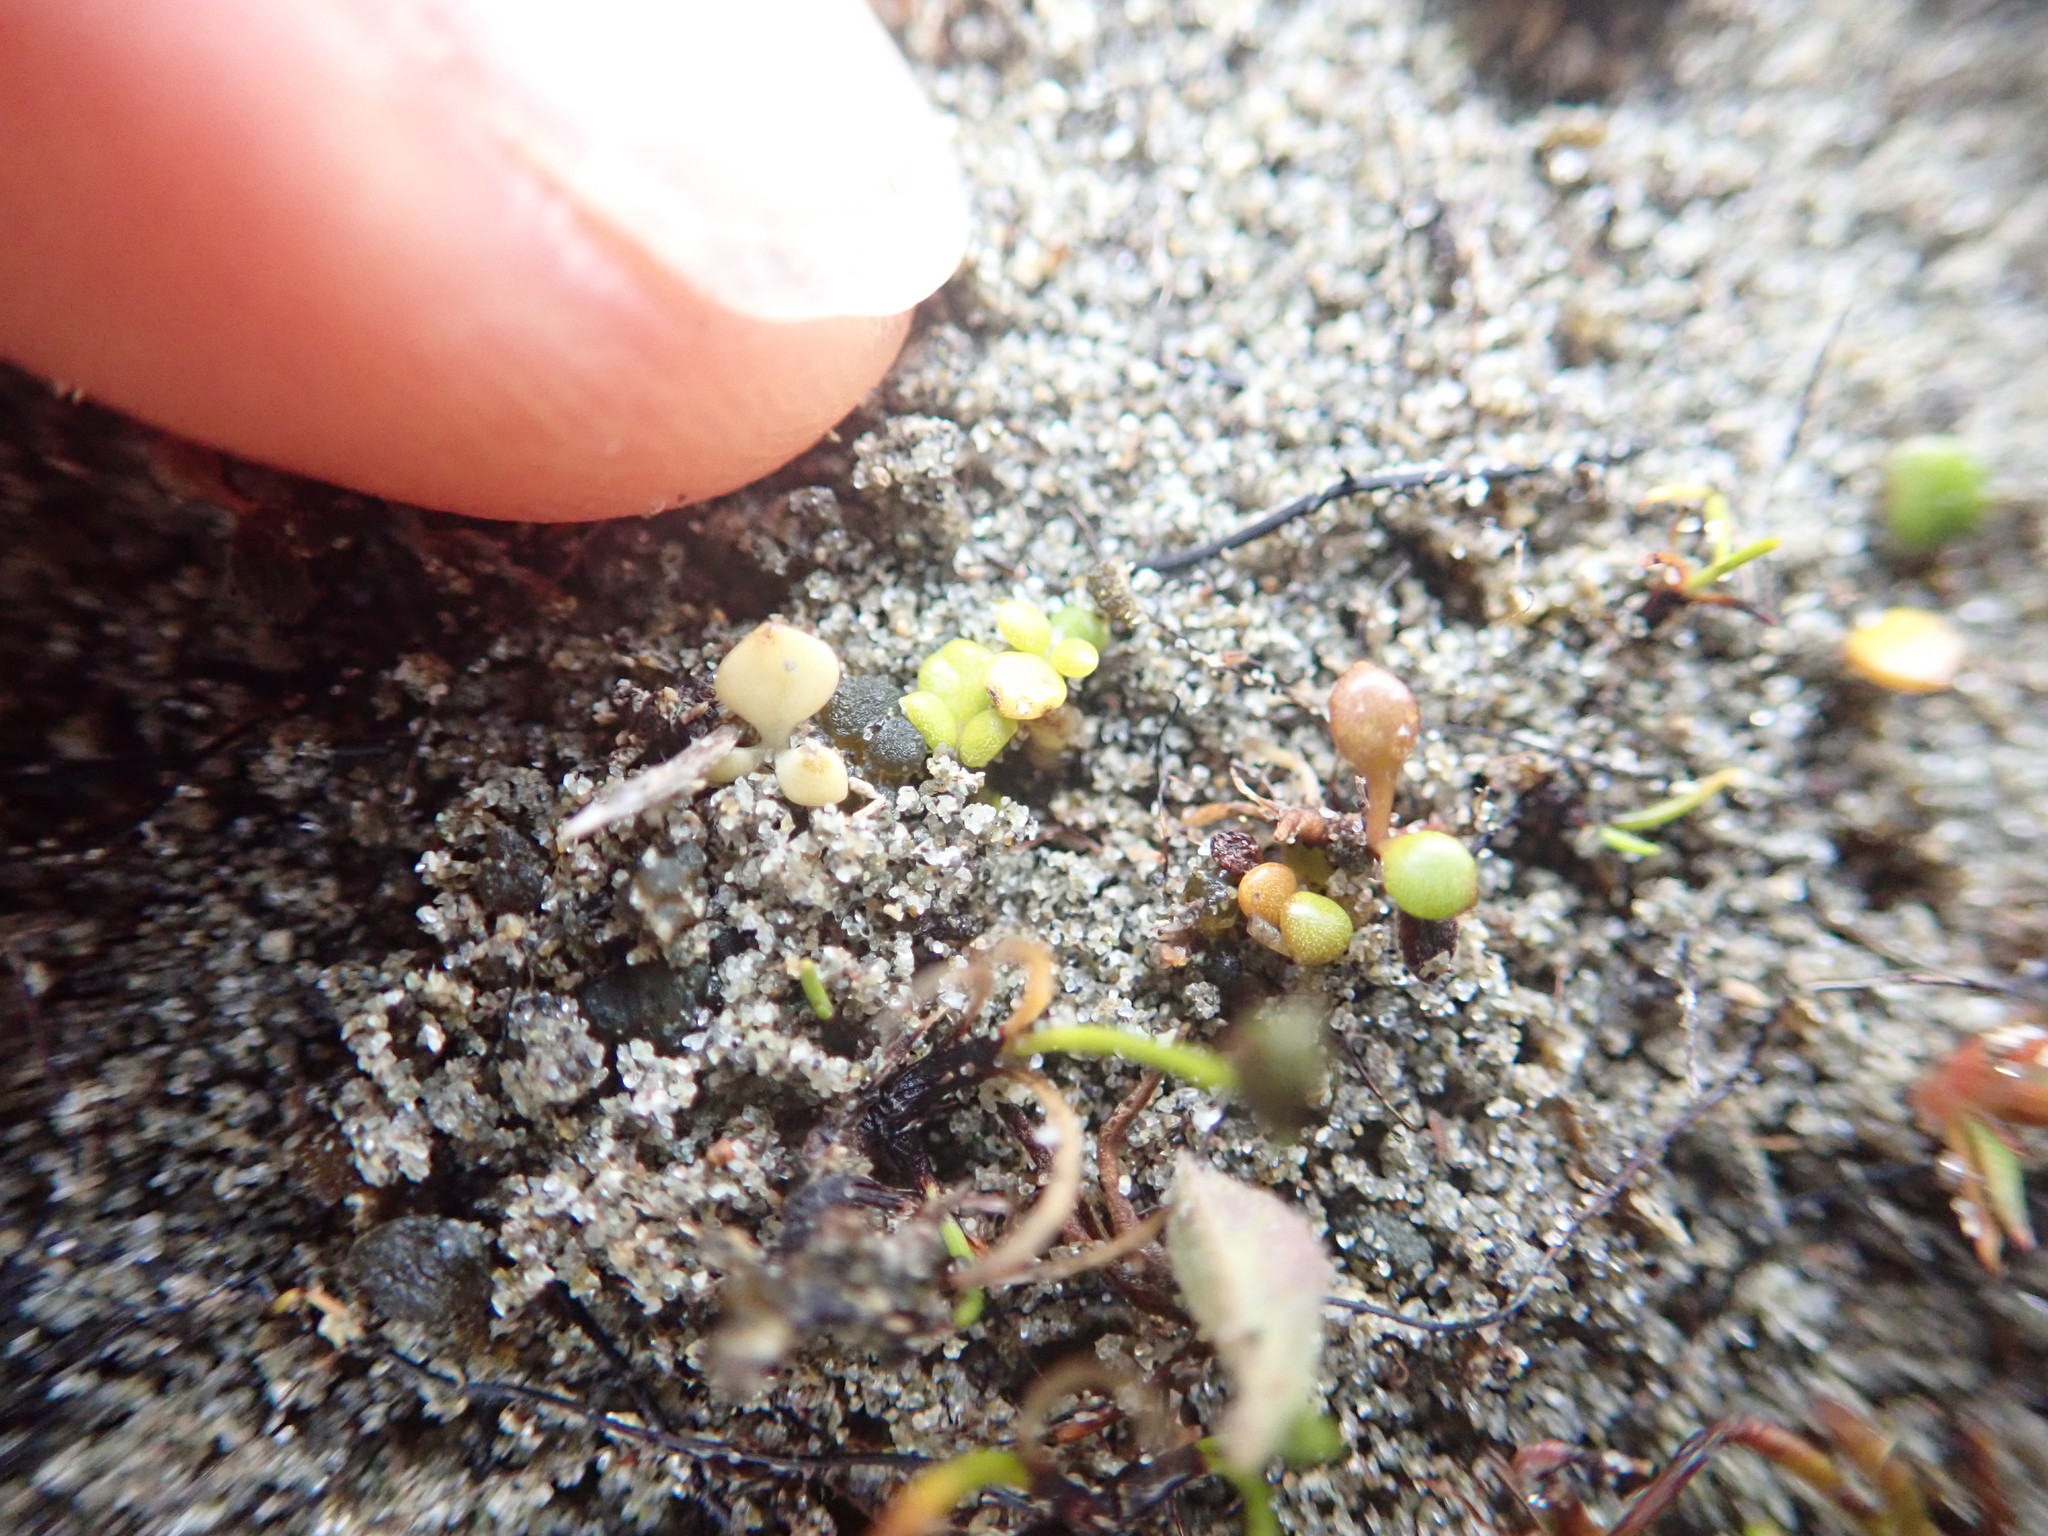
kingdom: Plantae
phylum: Tracheophyta
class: Magnoliopsida
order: Ranunculales
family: Ranunculaceae
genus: Ranunculus
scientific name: Ranunculus acaulis
